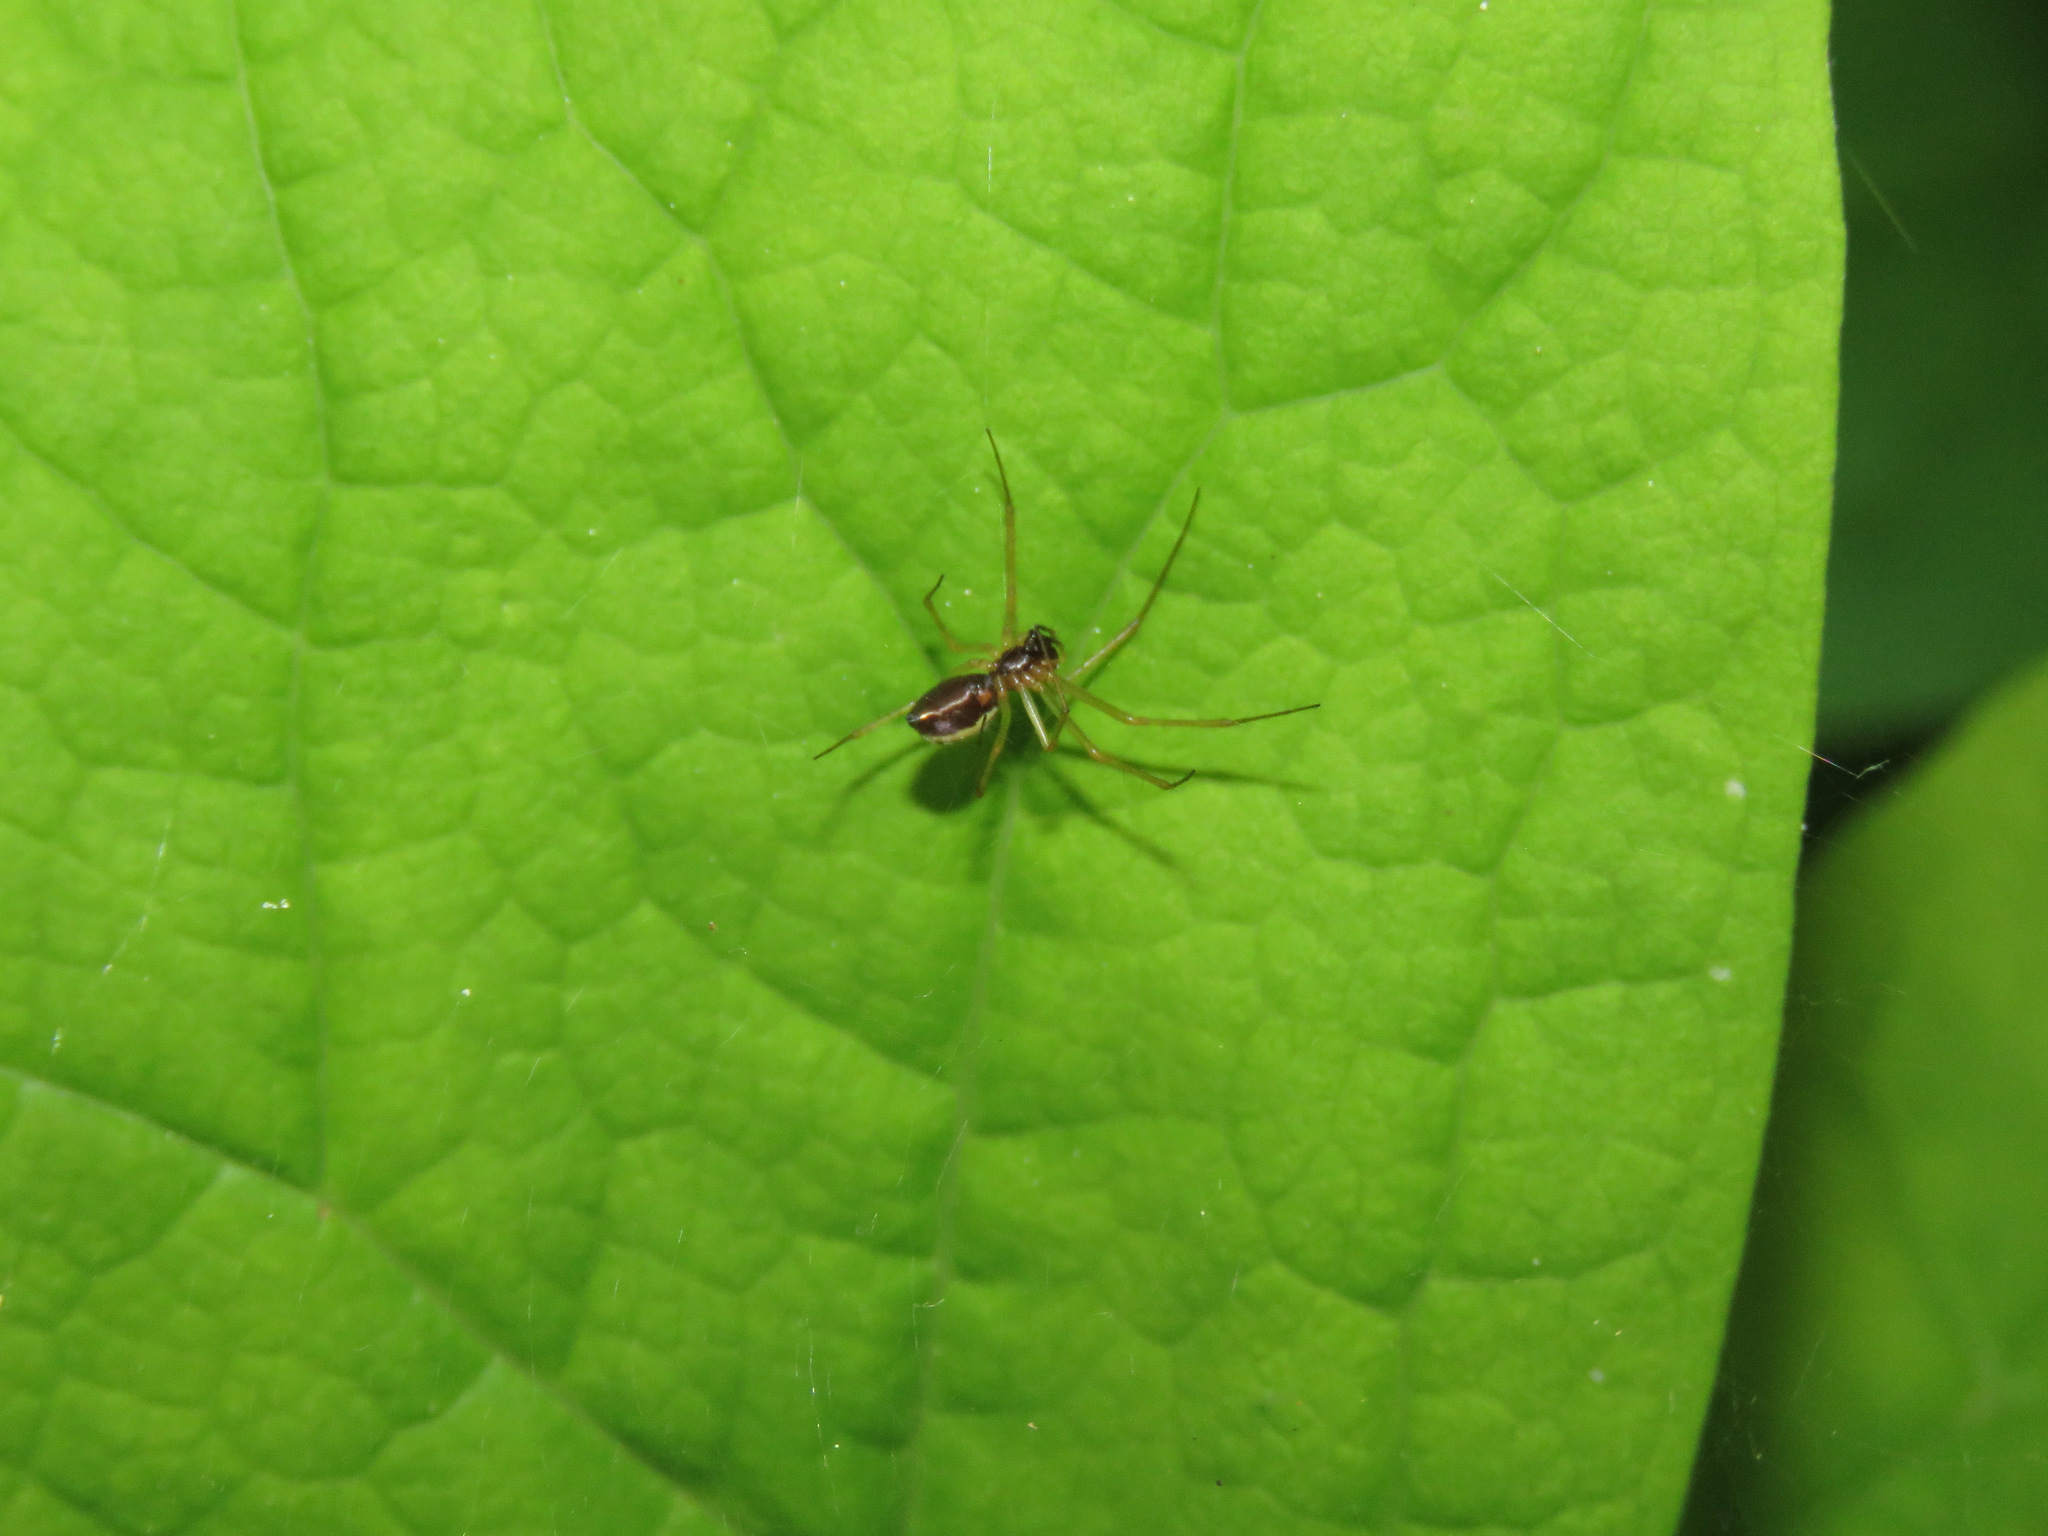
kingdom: Animalia
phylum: Arthropoda
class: Arachnida
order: Araneae
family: Linyphiidae
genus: Microlinyphia
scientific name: Microlinyphia dana
